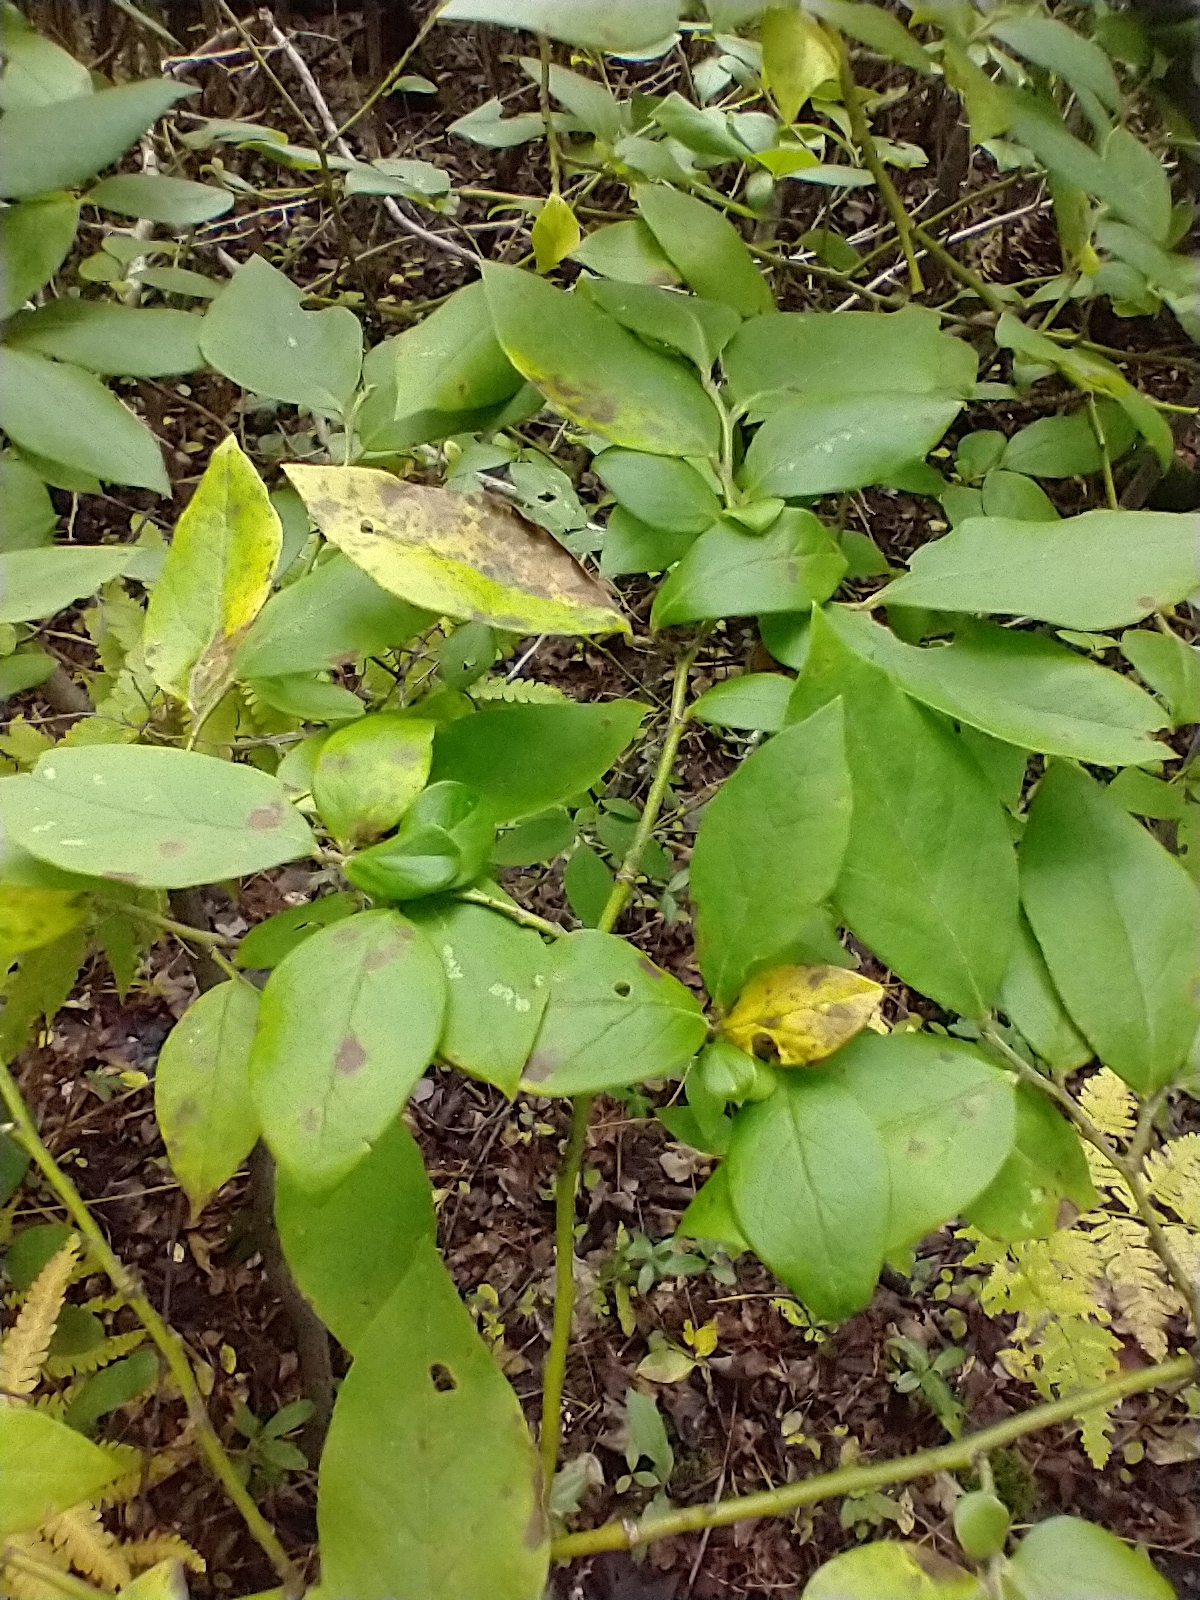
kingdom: Plantae
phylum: Tracheophyta
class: Magnoliopsida
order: Ericales
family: Ericaceae
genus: Vaccinium
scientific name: Vaccinium corymbosum
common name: Blueberry
